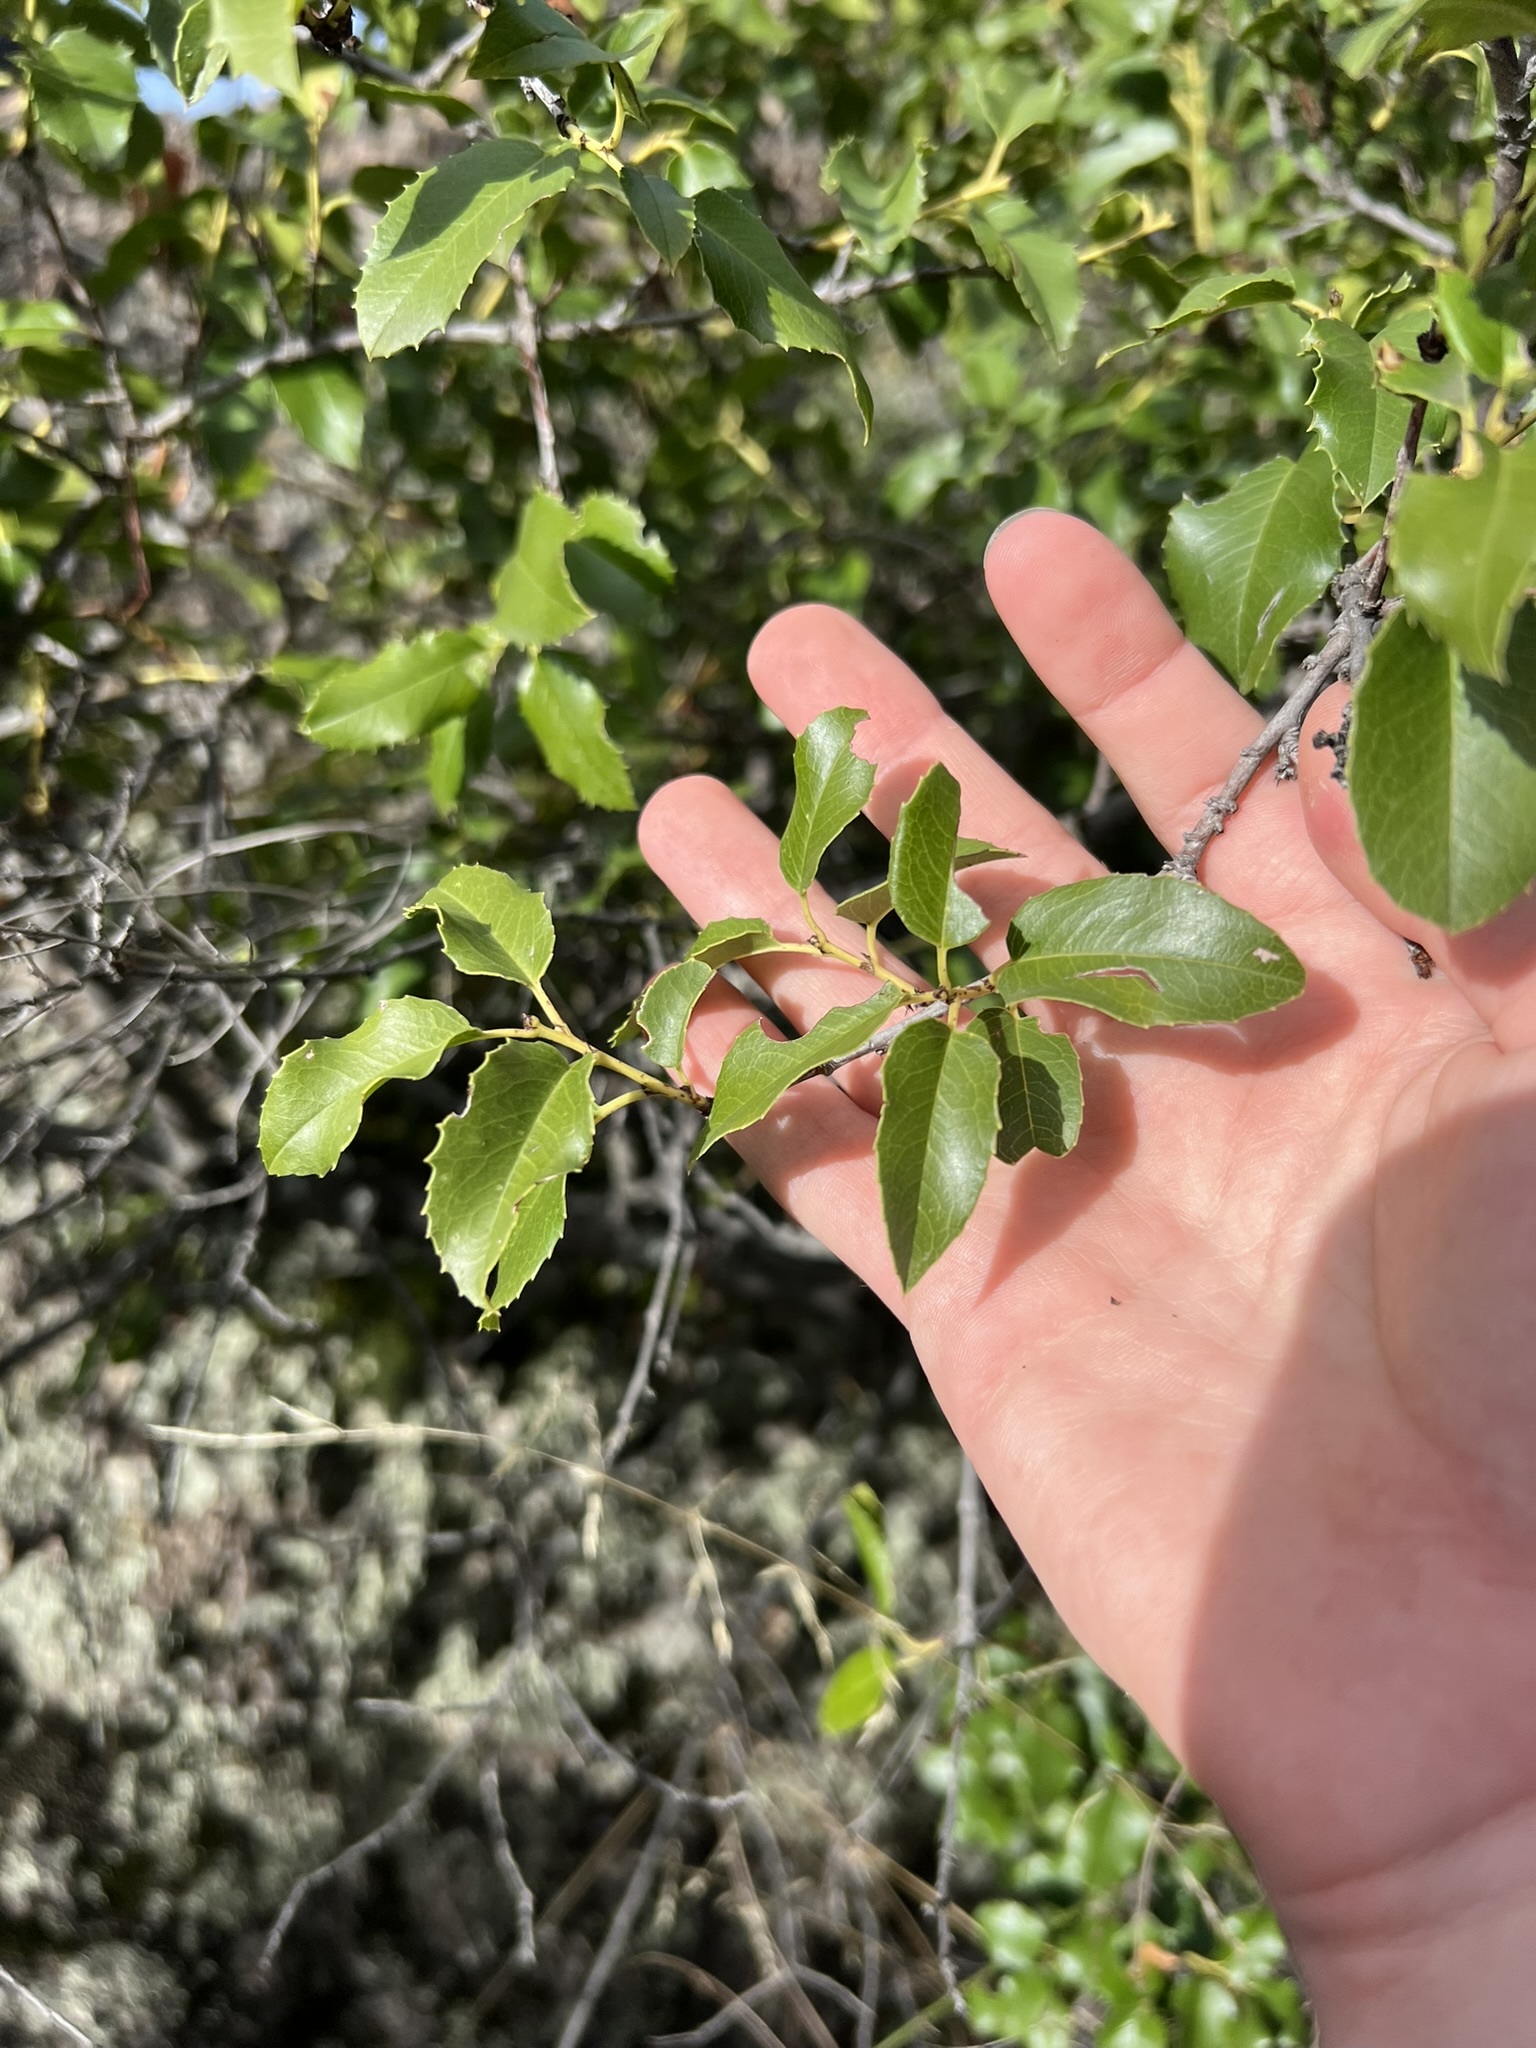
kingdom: Plantae
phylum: Tracheophyta
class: Magnoliopsida
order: Rosales
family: Rosaceae
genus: Prunus
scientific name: Prunus ilicifolia
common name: Hollyleaf cherry
